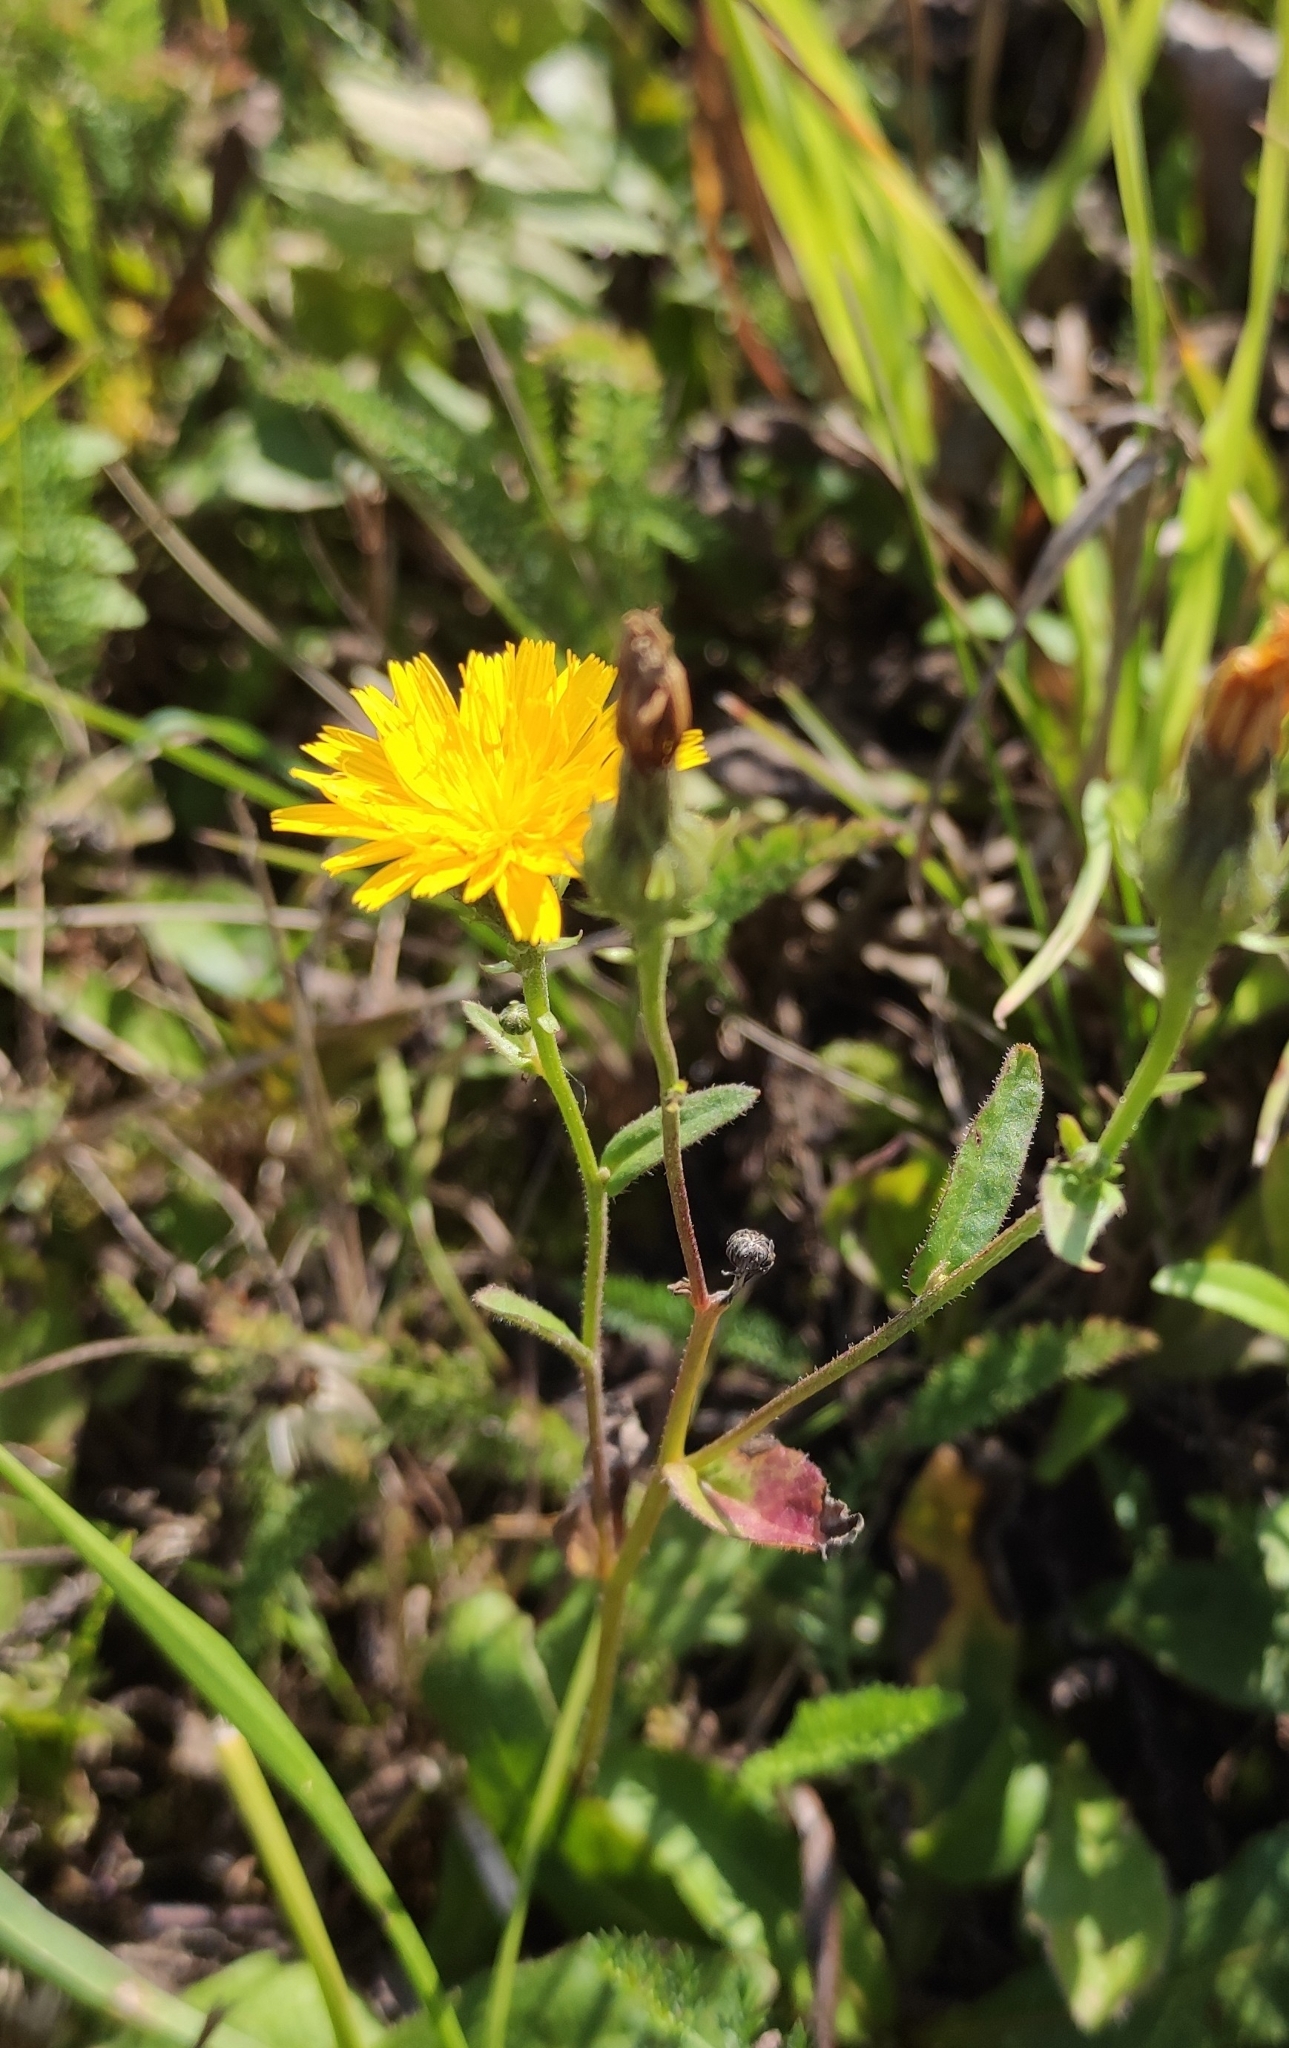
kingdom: Plantae
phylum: Tracheophyta
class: Magnoliopsida
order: Asterales
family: Asteraceae
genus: Picris
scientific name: Picris hieracioides
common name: Hawkweed oxtongue
